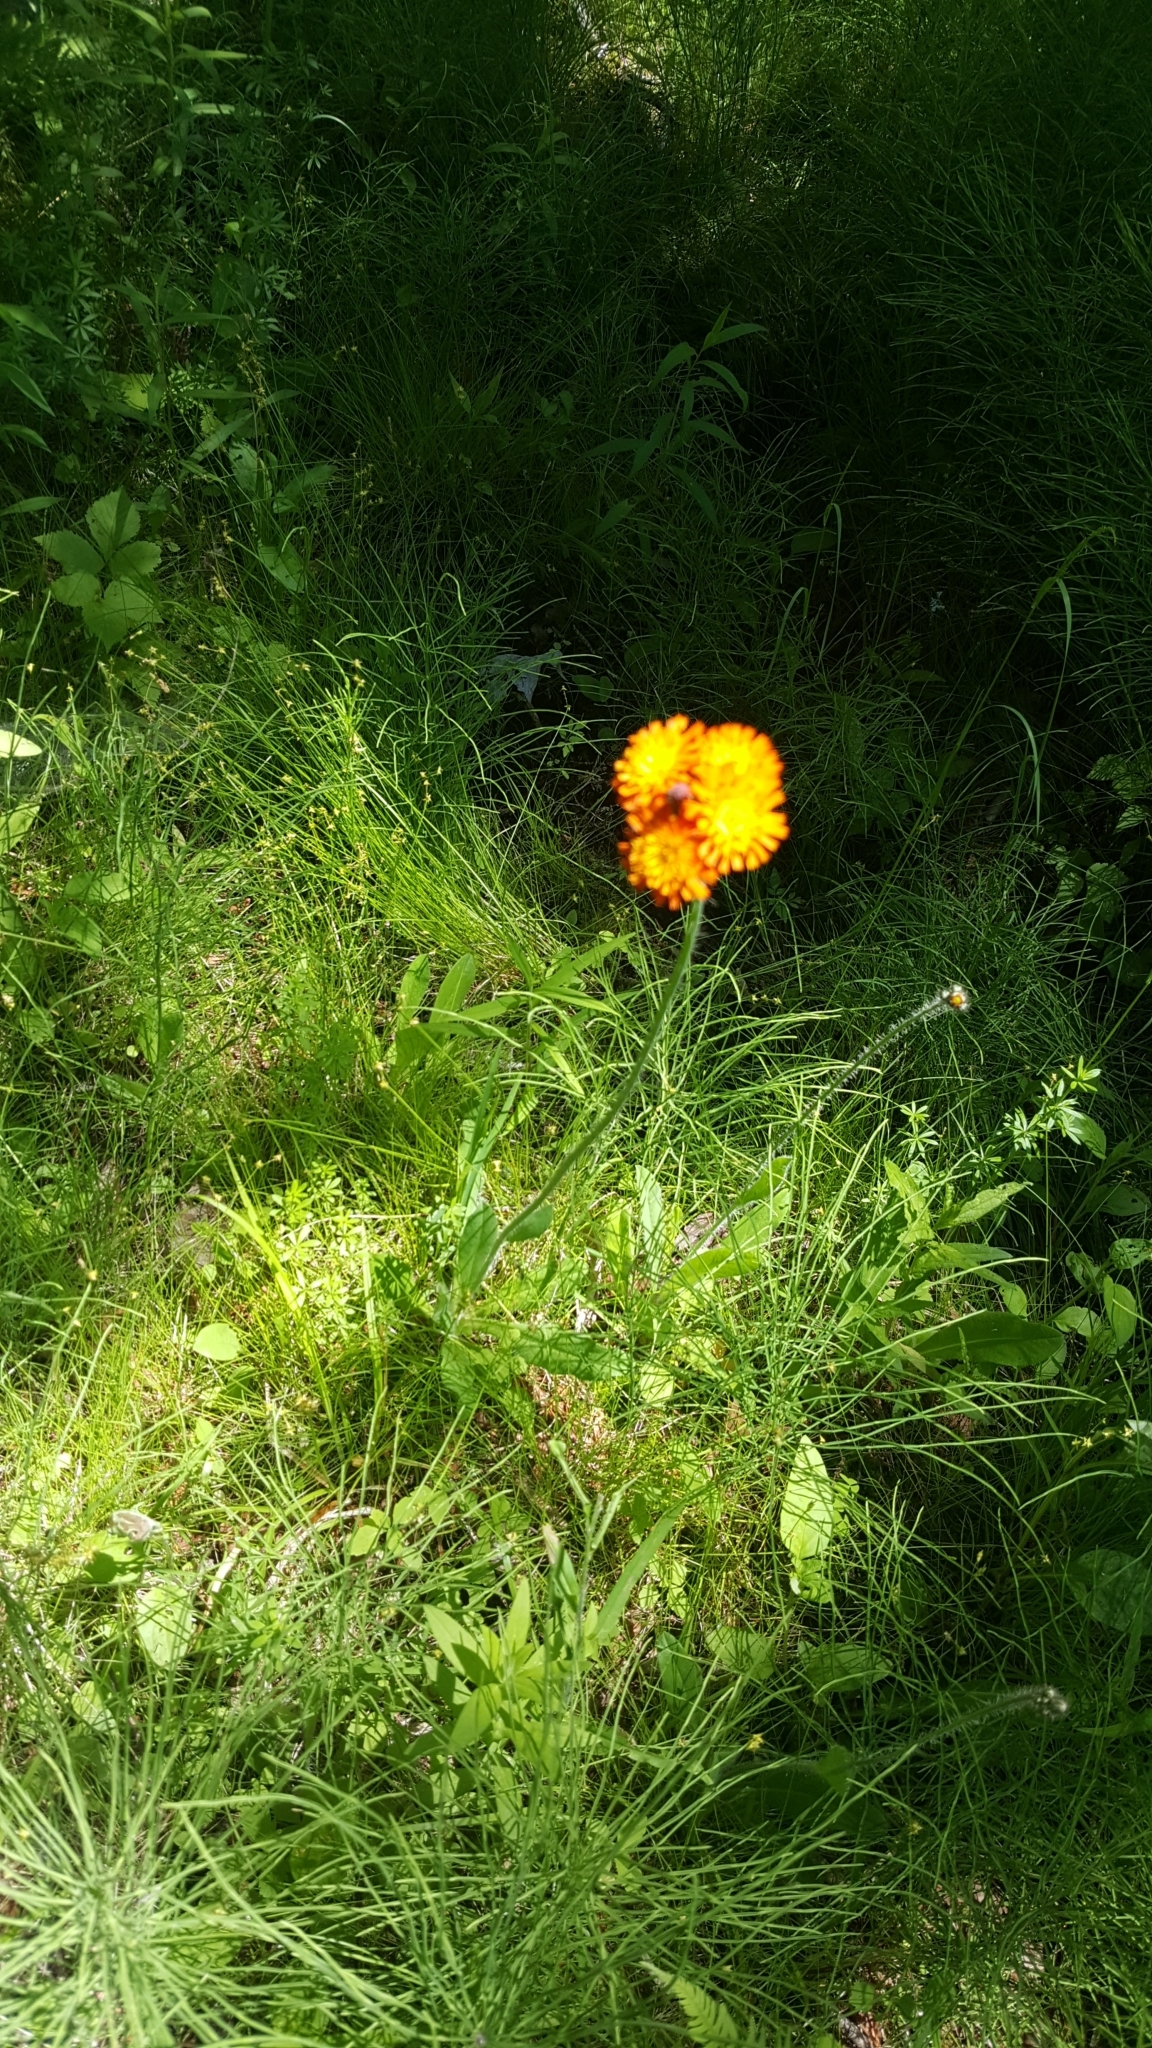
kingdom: Plantae
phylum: Tracheophyta
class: Magnoliopsida
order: Asterales
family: Asteraceae
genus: Pilosella
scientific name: Pilosella aurantiaca
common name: Fox-and-cubs
